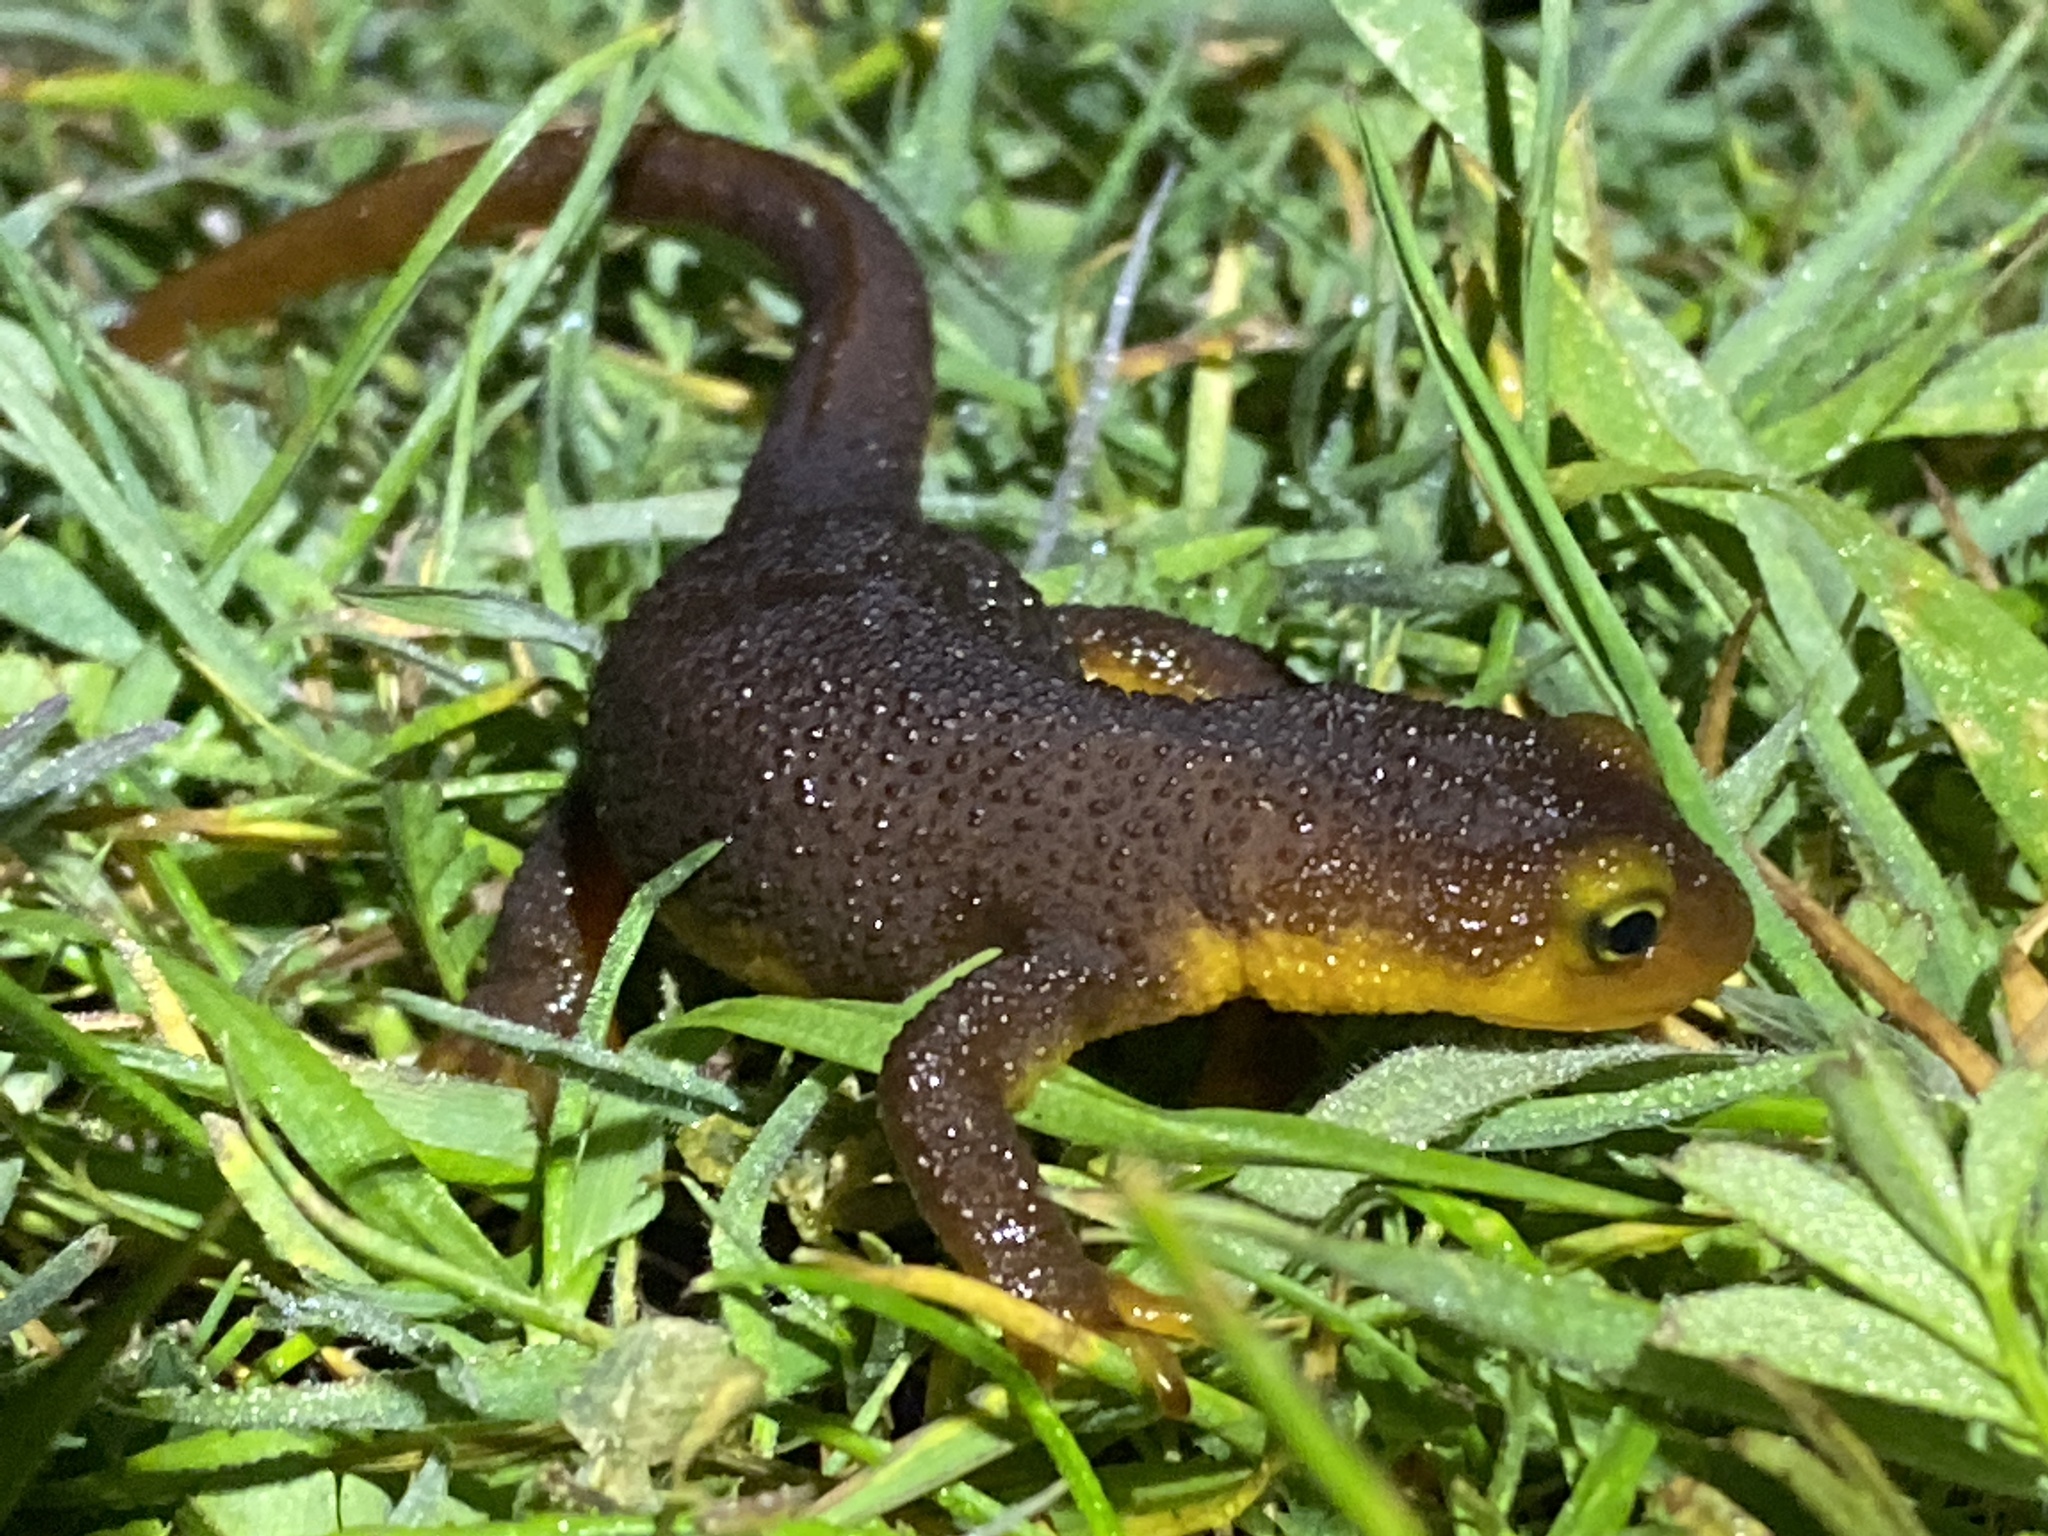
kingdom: Animalia
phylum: Chordata
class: Amphibia
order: Caudata
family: Salamandridae
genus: Taricha
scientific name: Taricha torosa
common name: California newt
